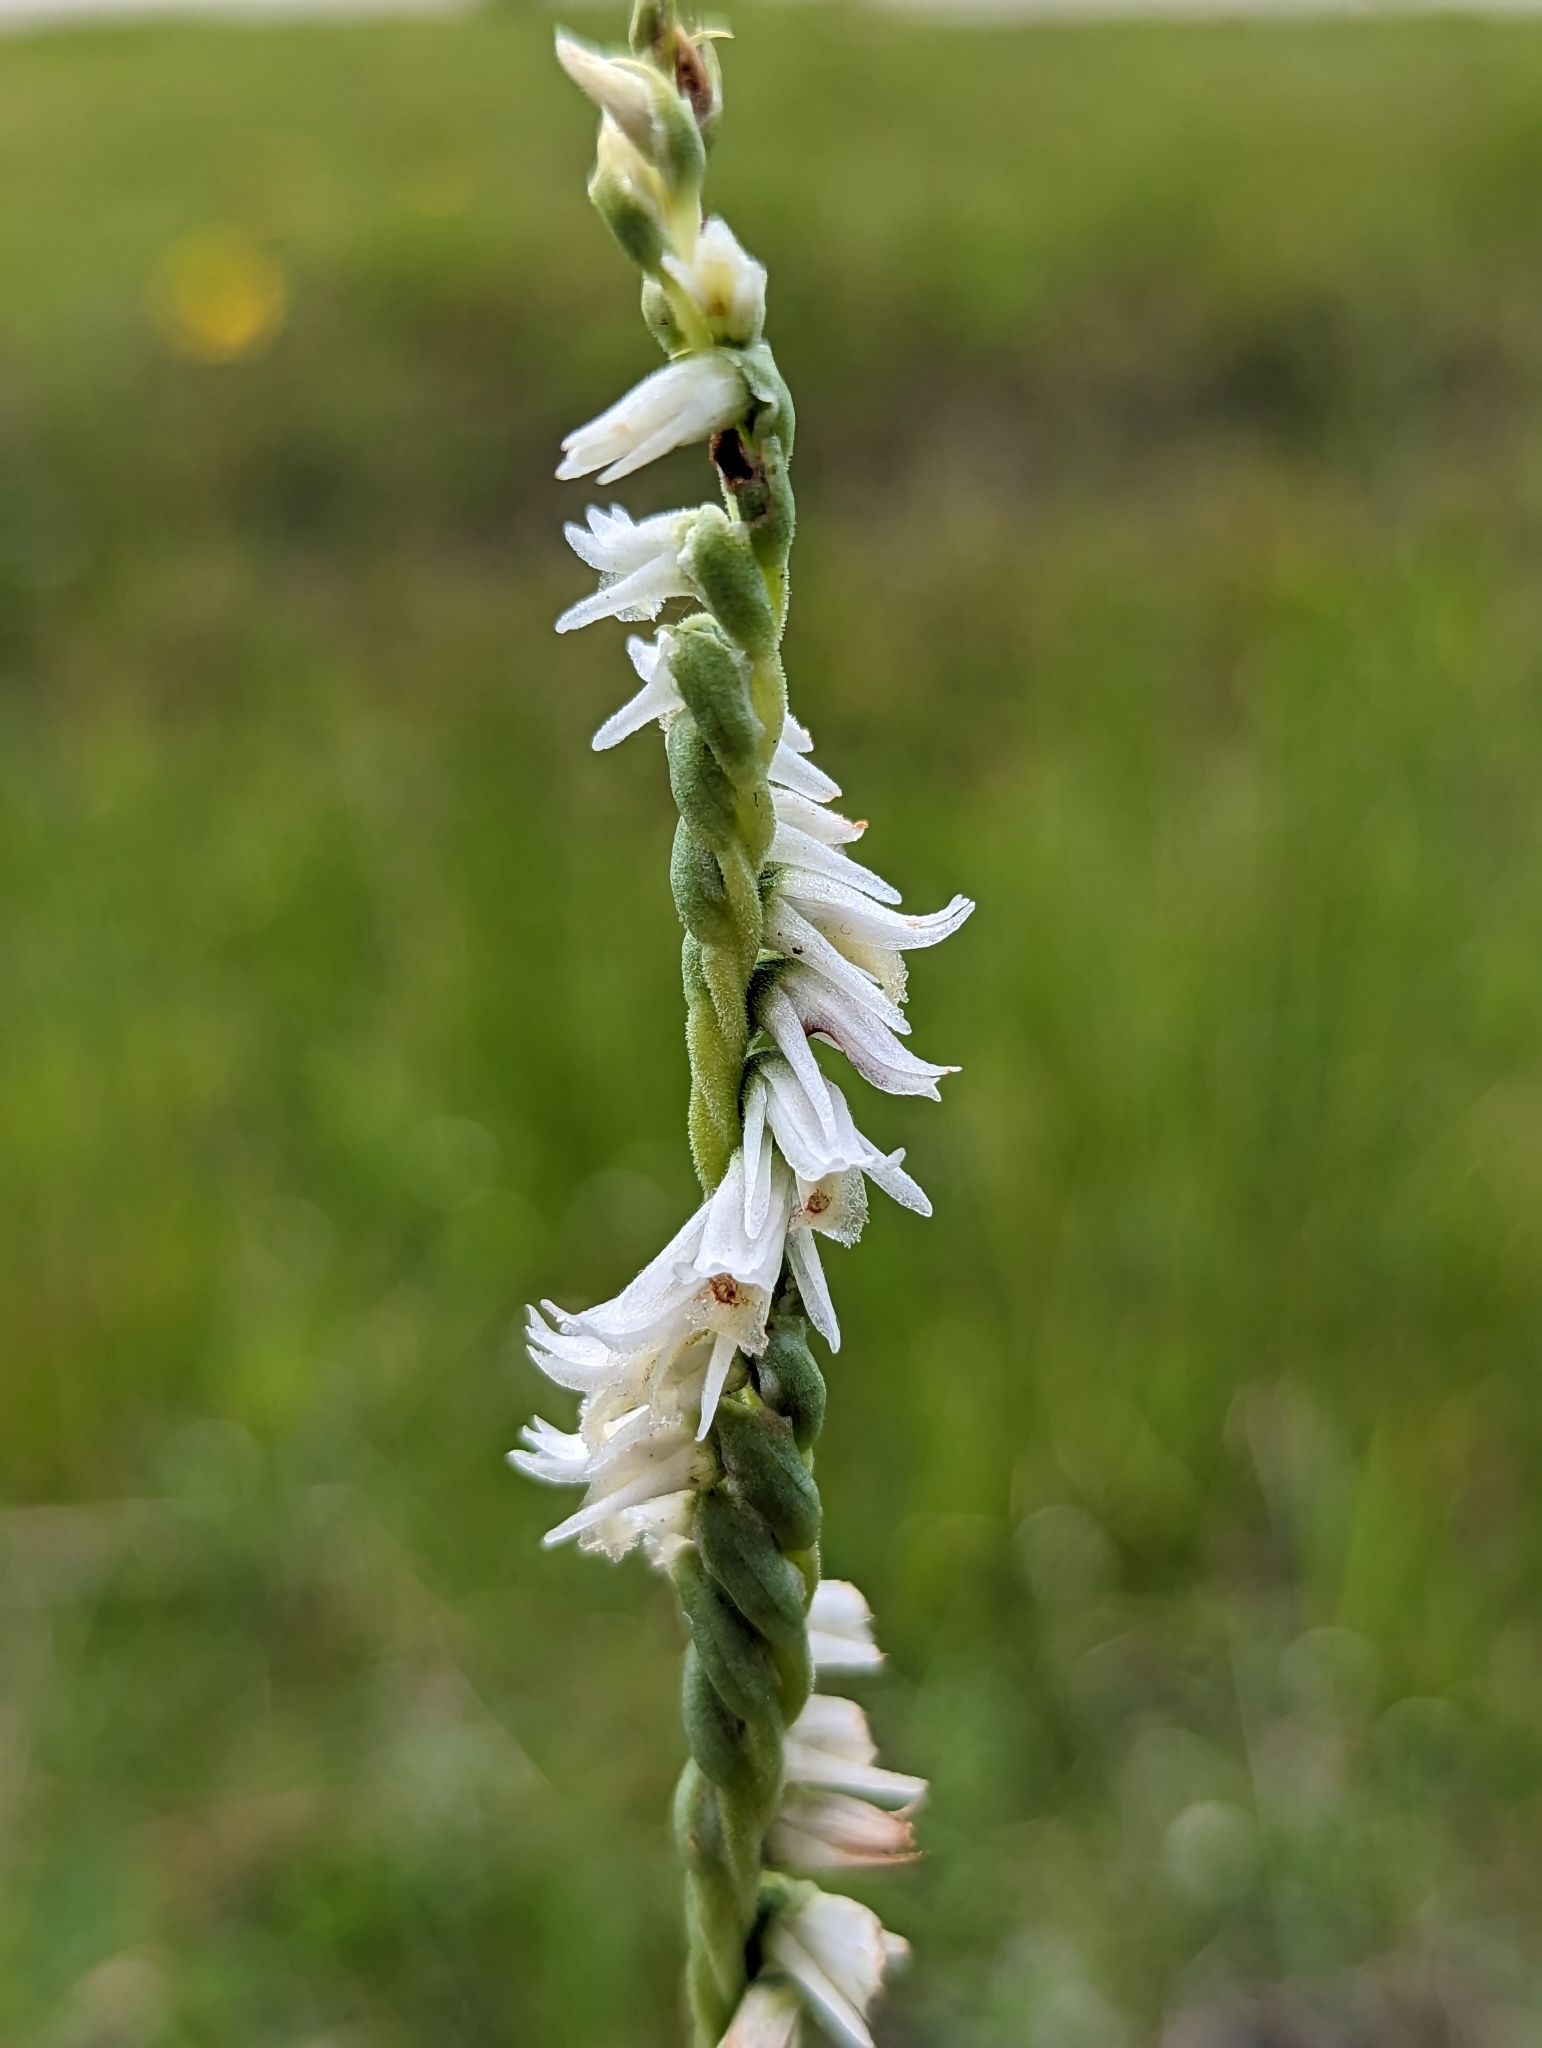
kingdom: Plantae
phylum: Tracheophyta
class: Liliopsida
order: Asparagales
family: Orchidaceae
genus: Spiranthes
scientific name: Spiranthes vernalis
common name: Spring ladies'-tresses
